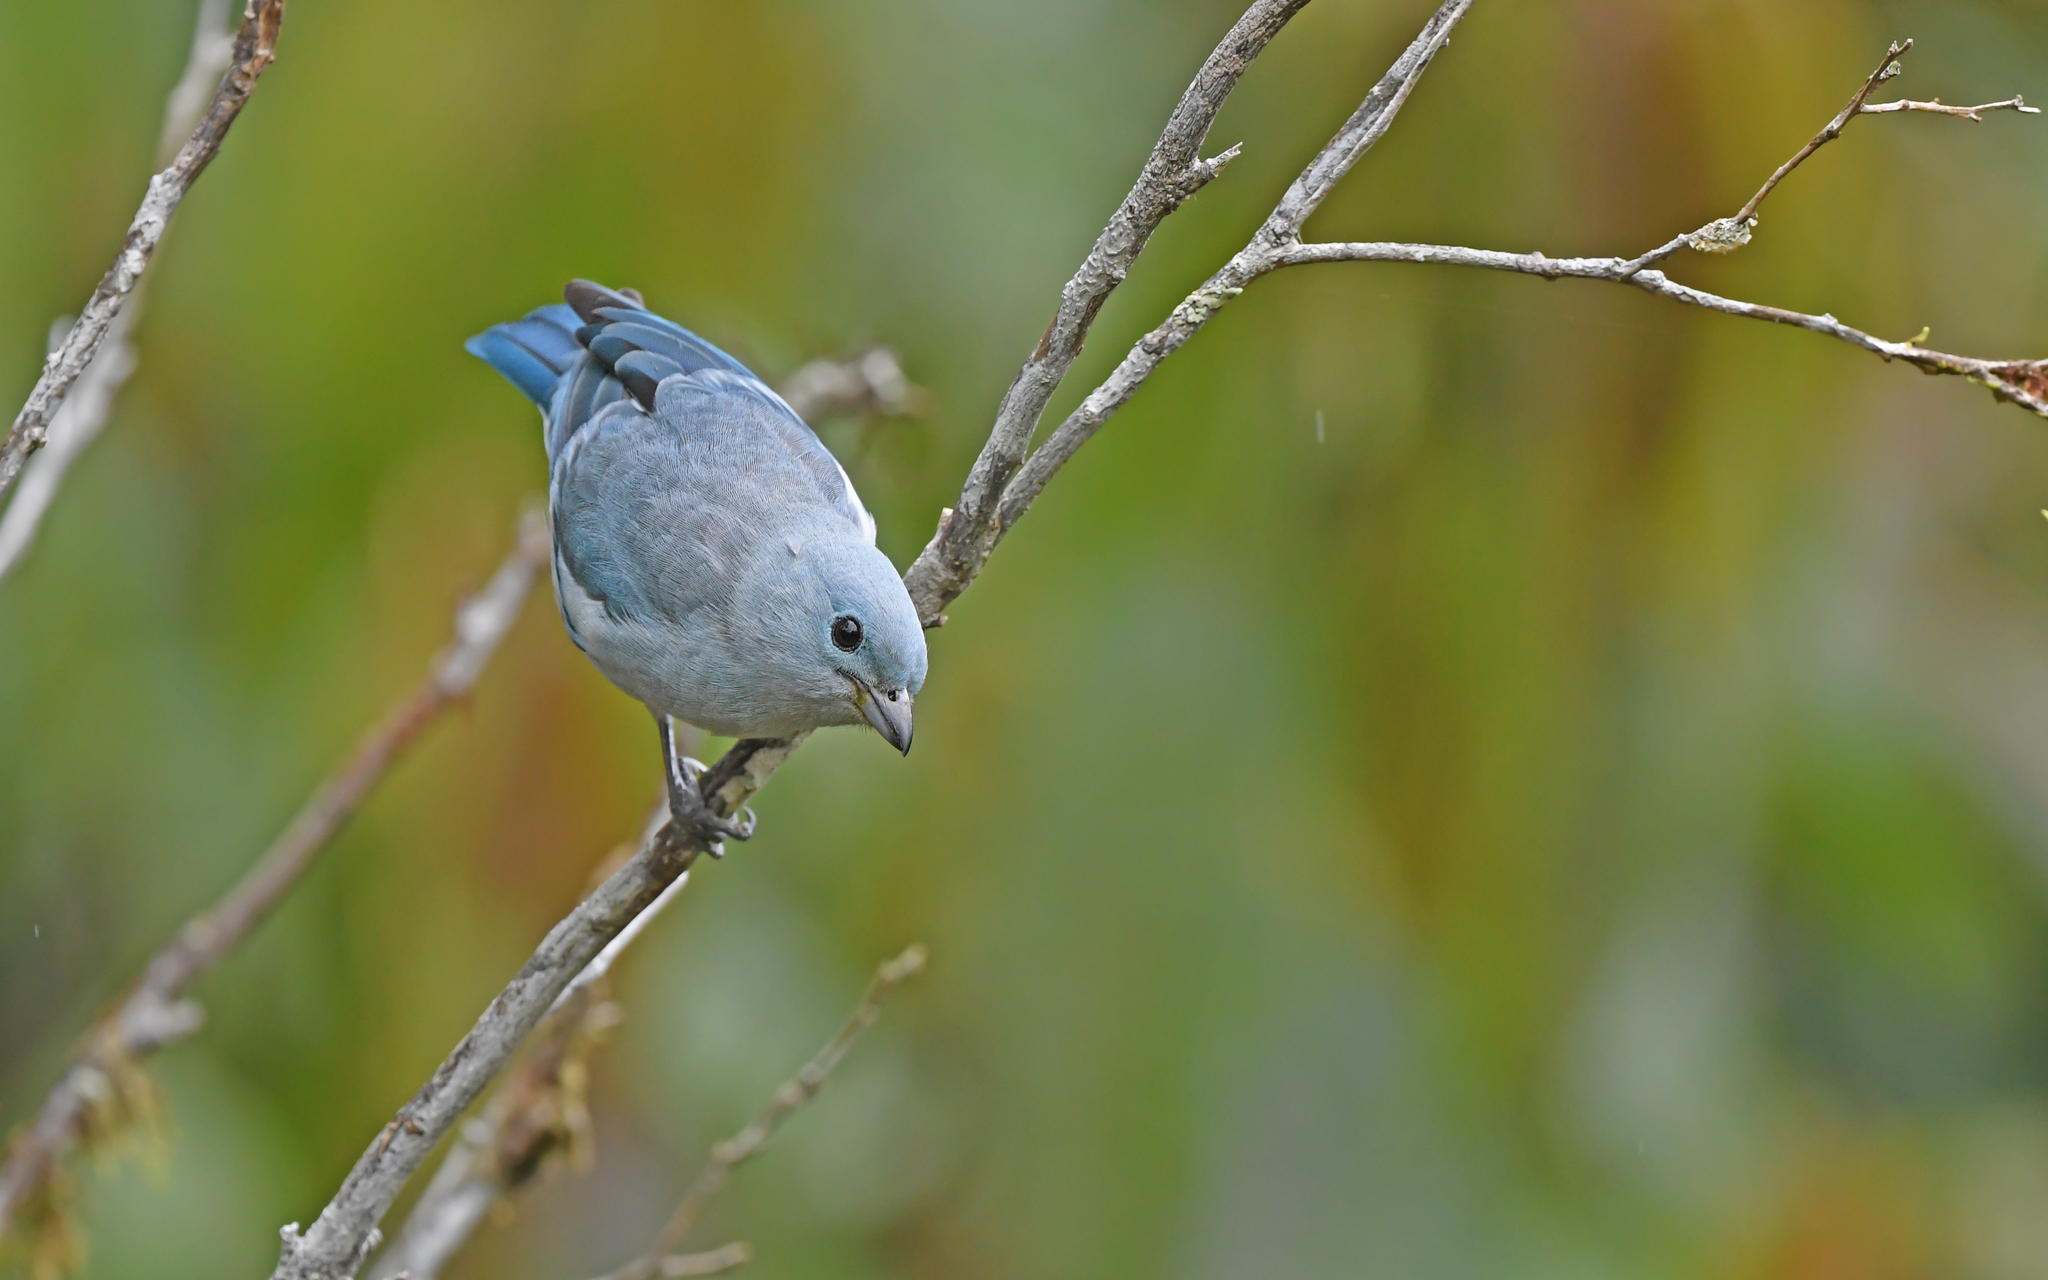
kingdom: Animalia
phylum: Chordata
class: Aves
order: Passeriformes
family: Thraupidae
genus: Thraupis
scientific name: Thraupis episcopus
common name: Blue-grey tanager
